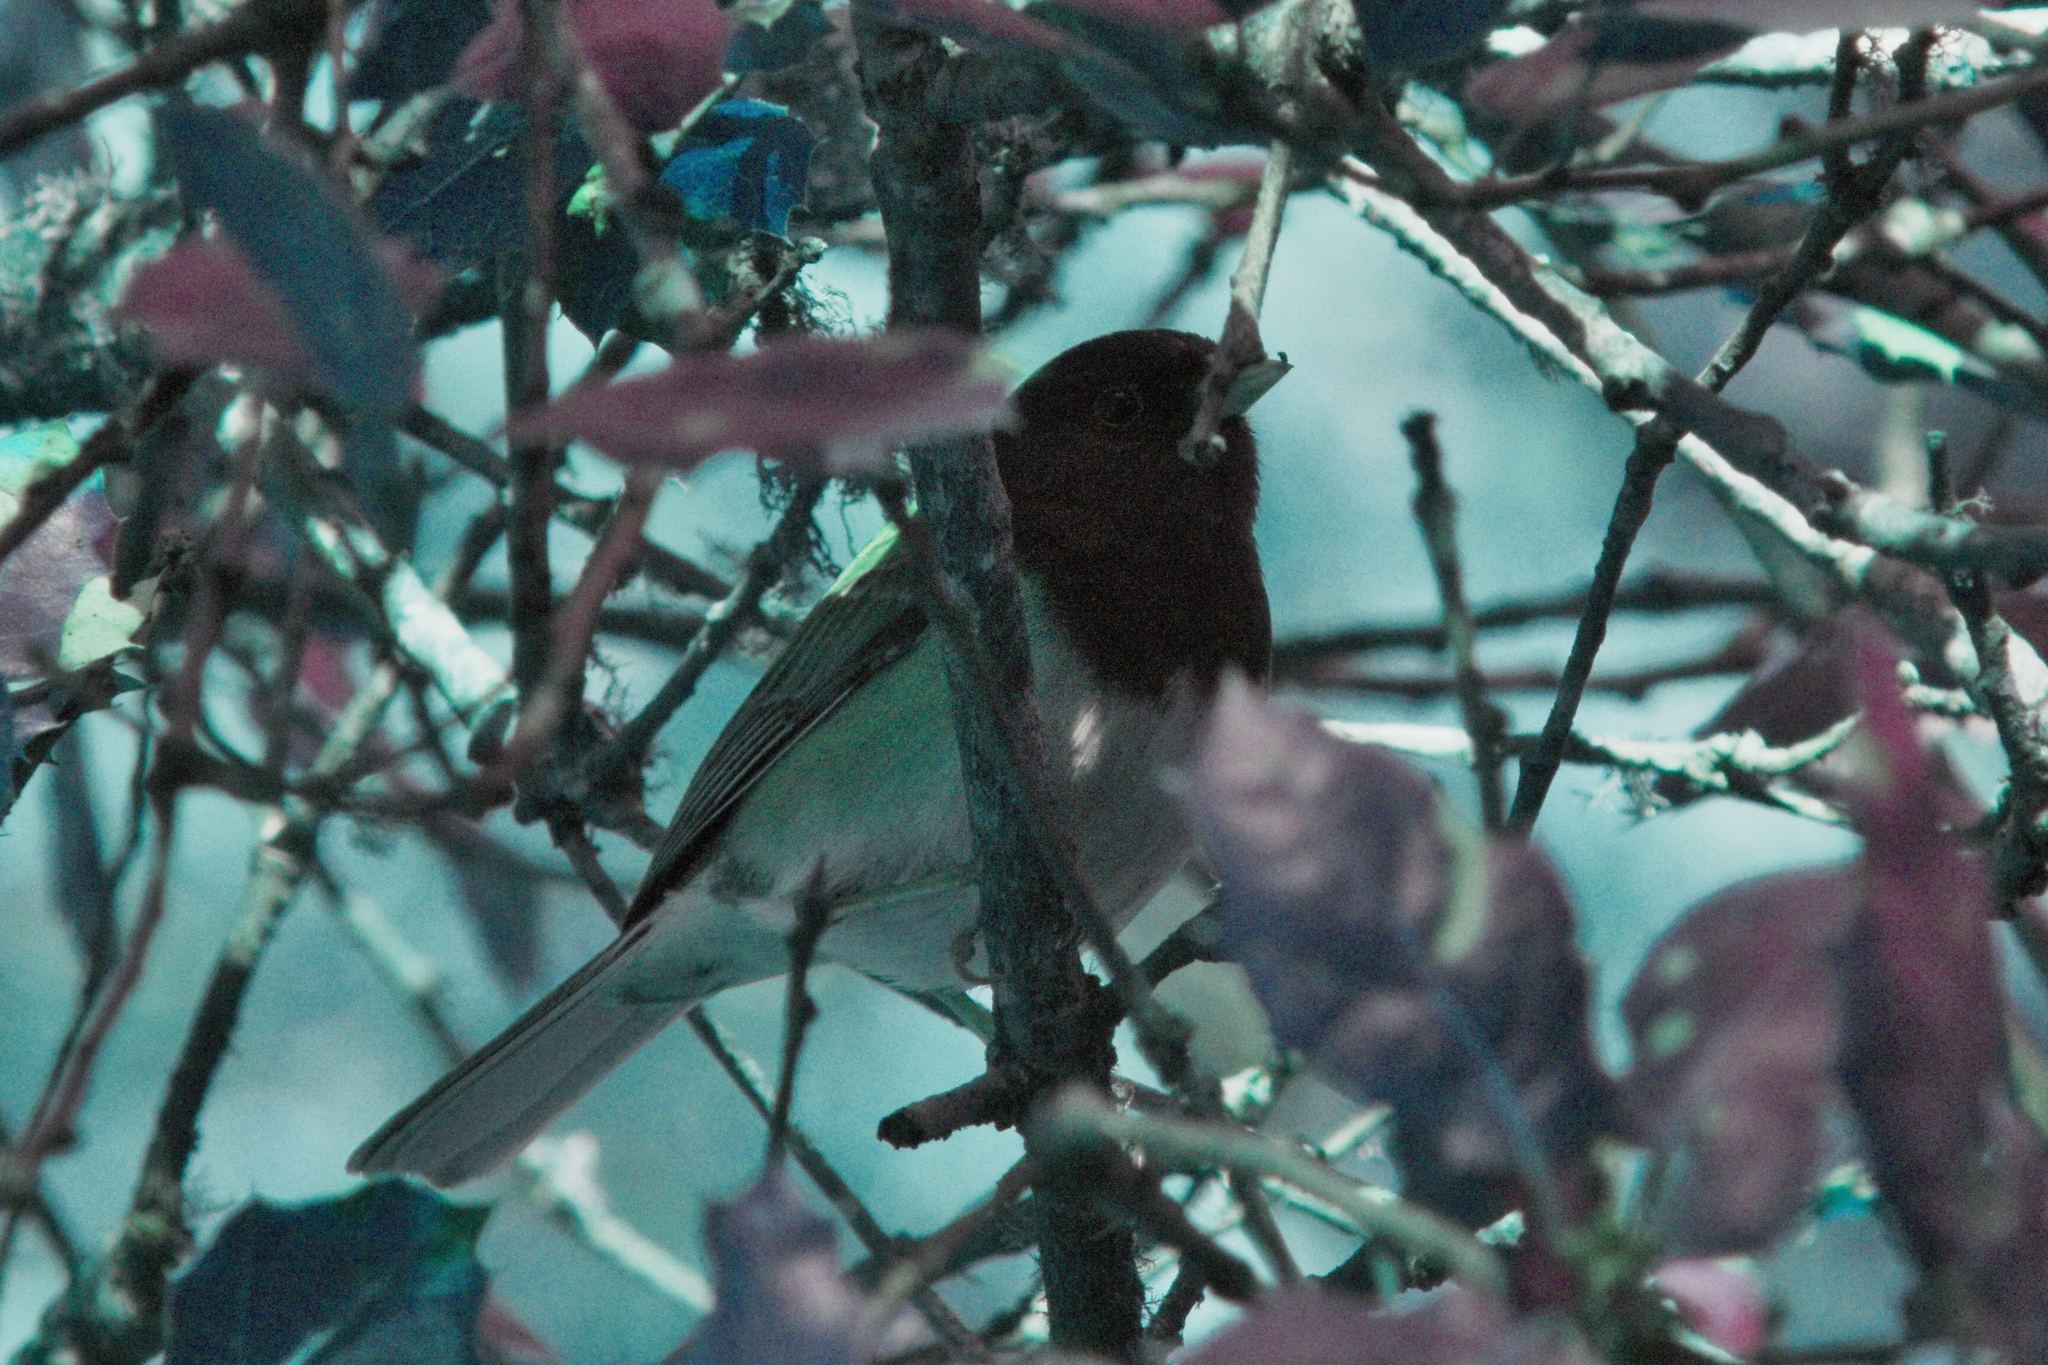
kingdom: Animalia
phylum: Chordata
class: Aves
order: Passeriformes
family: Passerellidae
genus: Junco
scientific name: Junco hyemalis
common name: Dark-eyed junco
